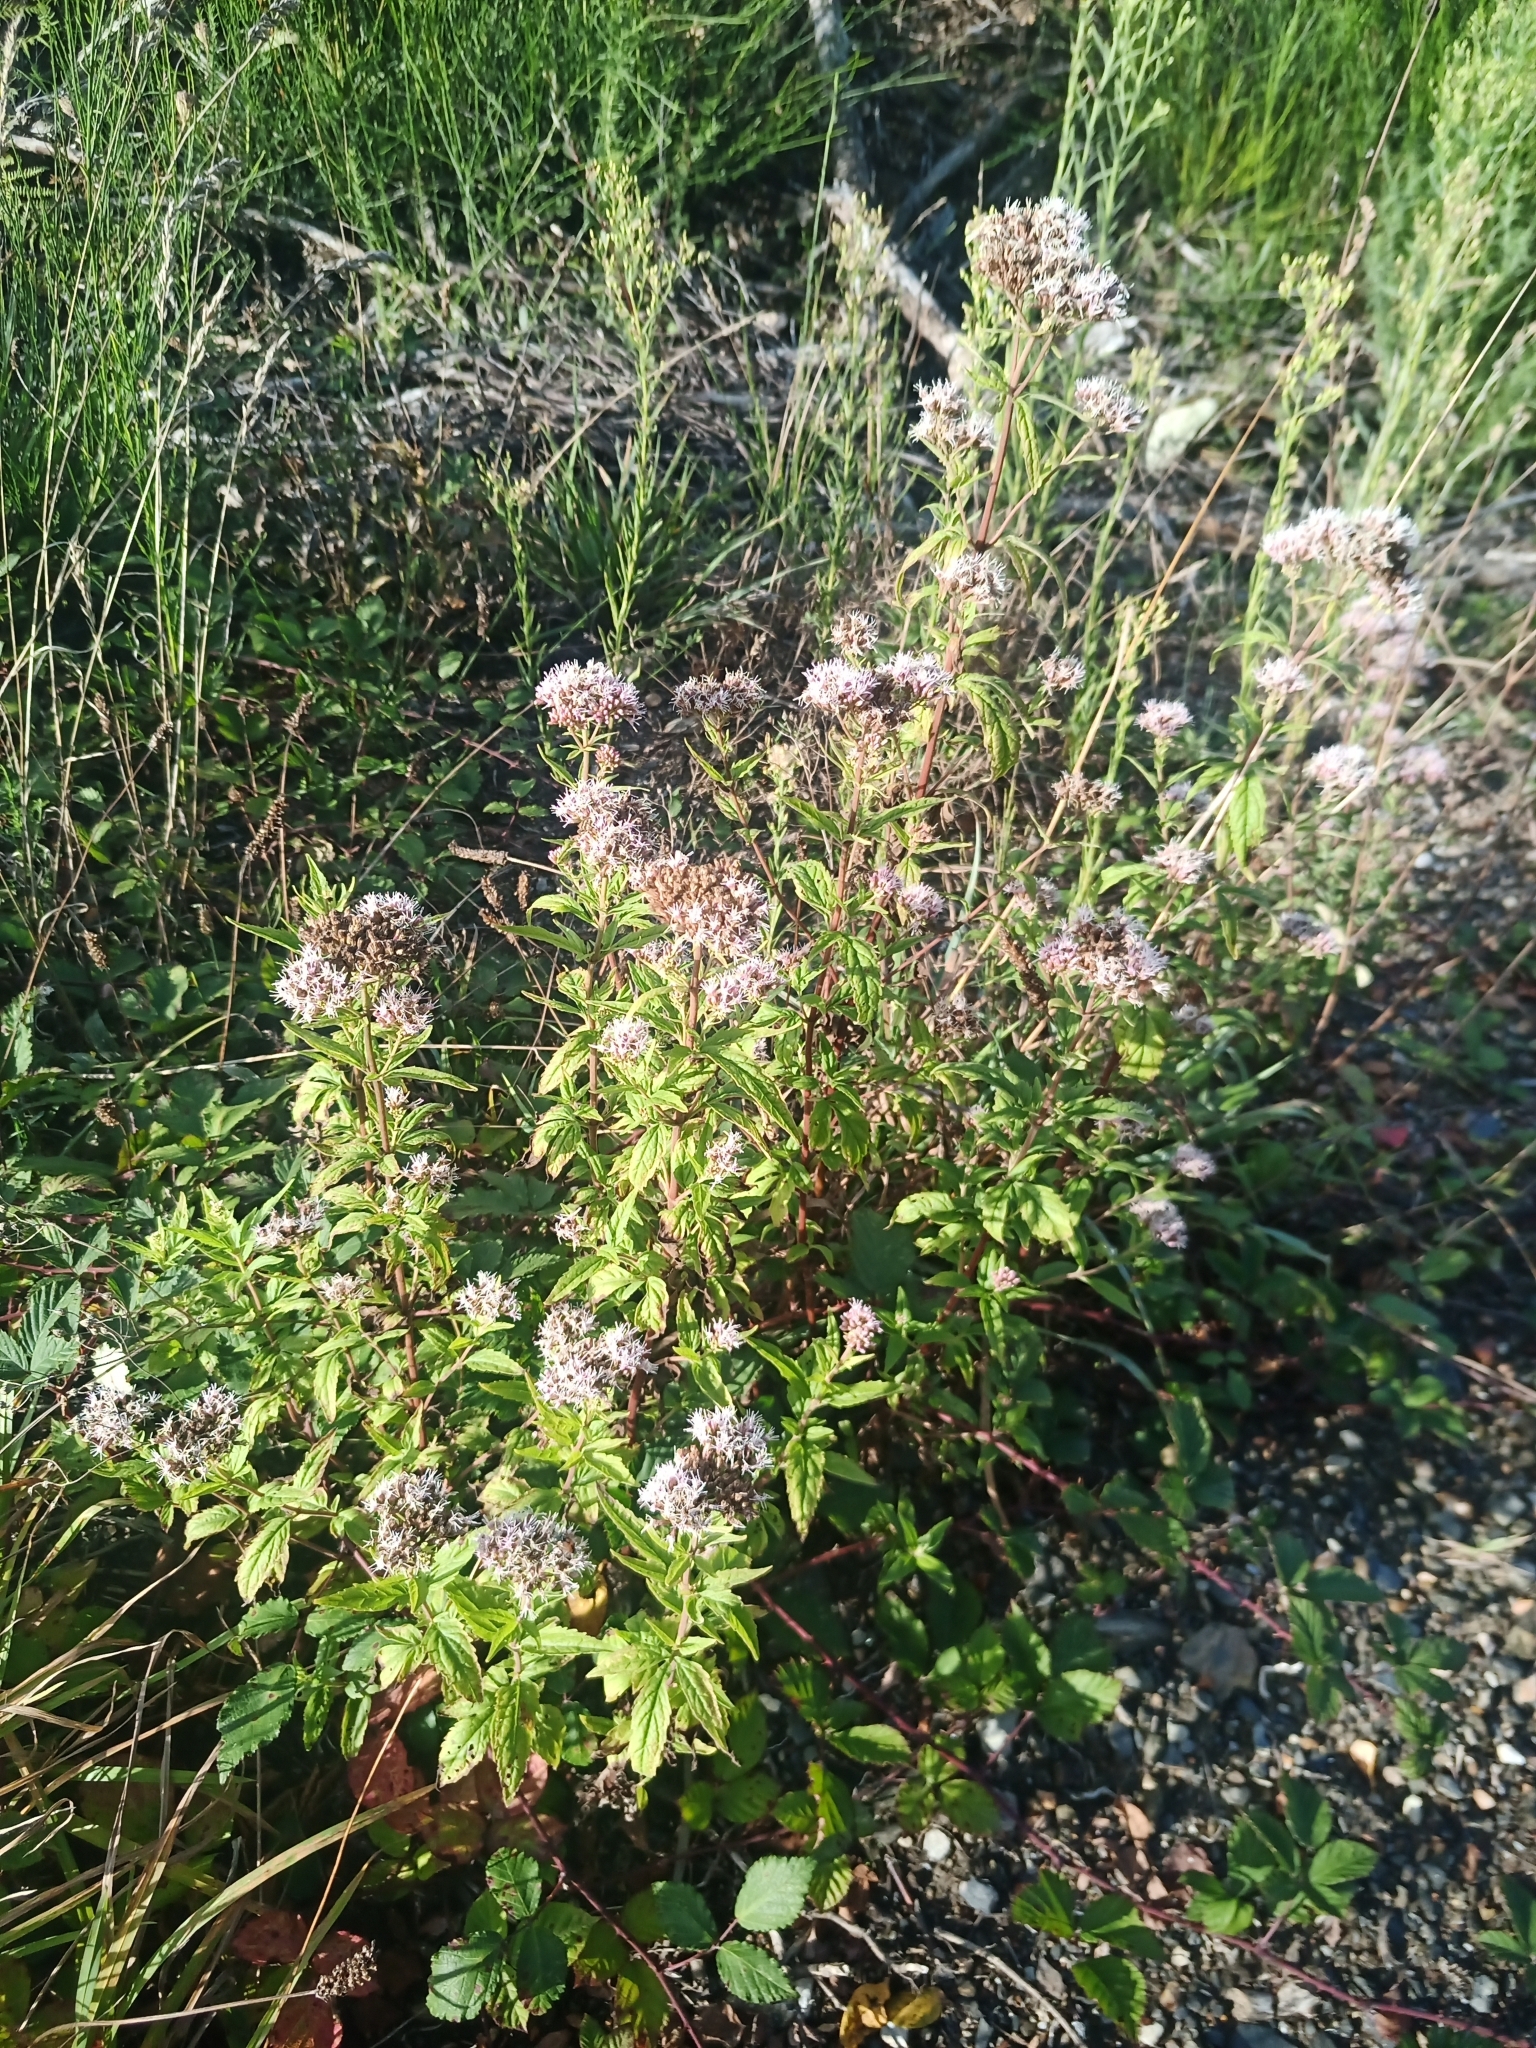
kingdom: Plantae
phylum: Tracheophyta
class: Magnoliopsida
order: Asterales
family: Asteraceae
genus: Eupatorium
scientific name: Eupatorium cannabinum
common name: Hemp-agrimony
